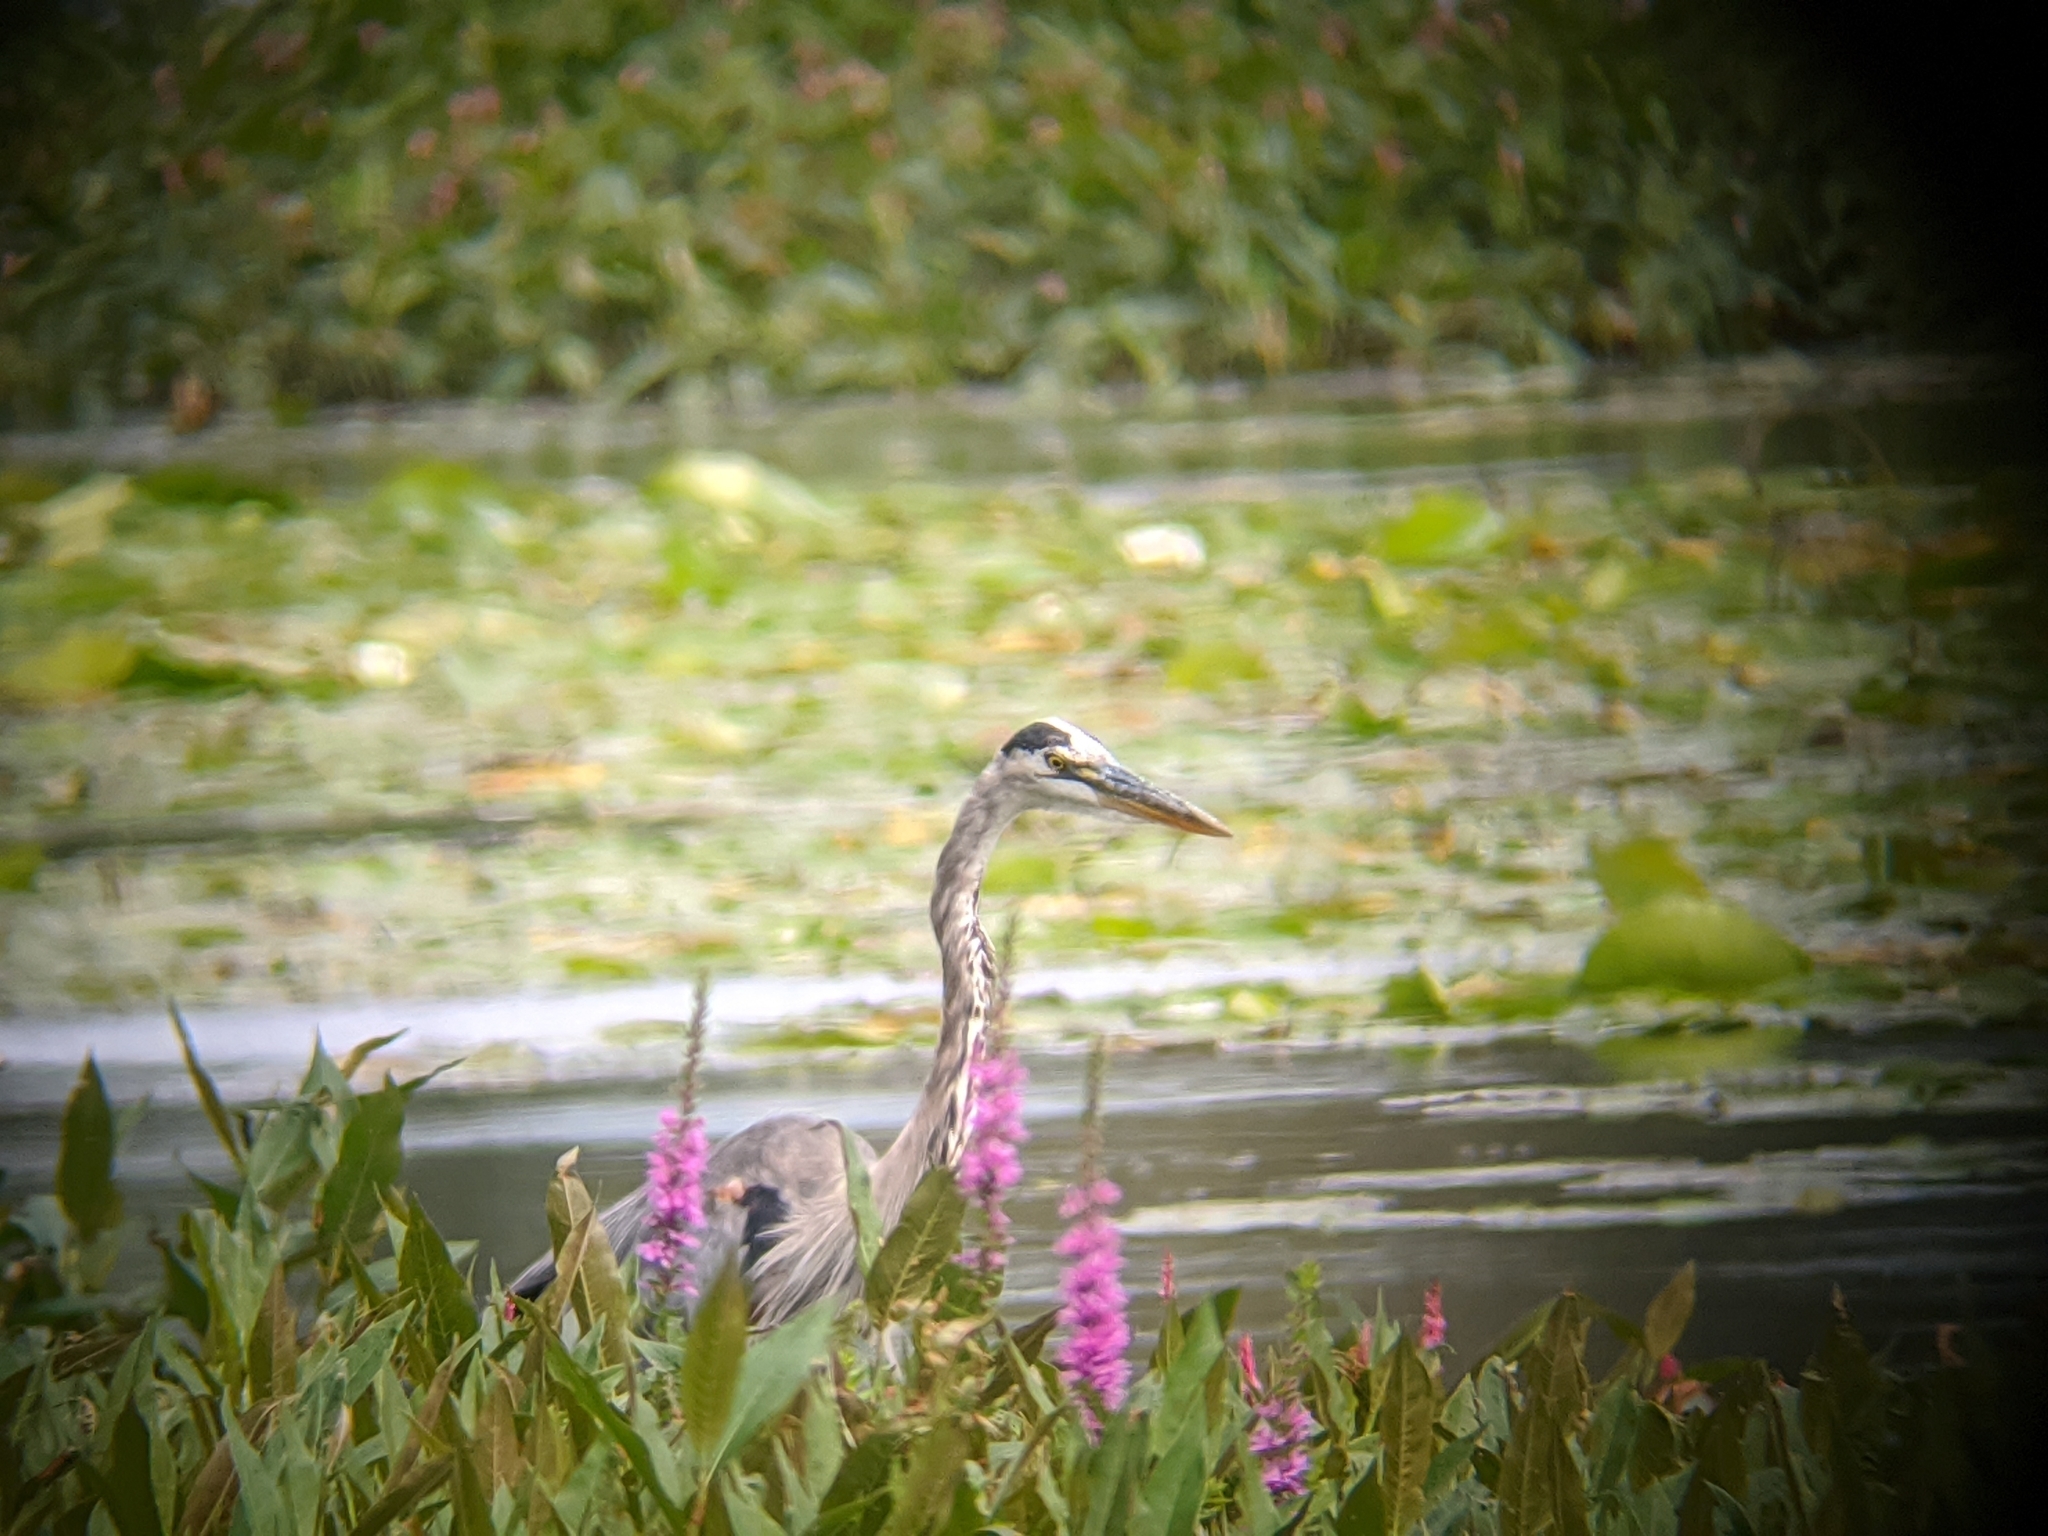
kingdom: Animalia
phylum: Chordata
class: Aves
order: Pelecaniformes
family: Ardeidae
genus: Ardea
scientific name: Ardea herodias
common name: Great blue heron
